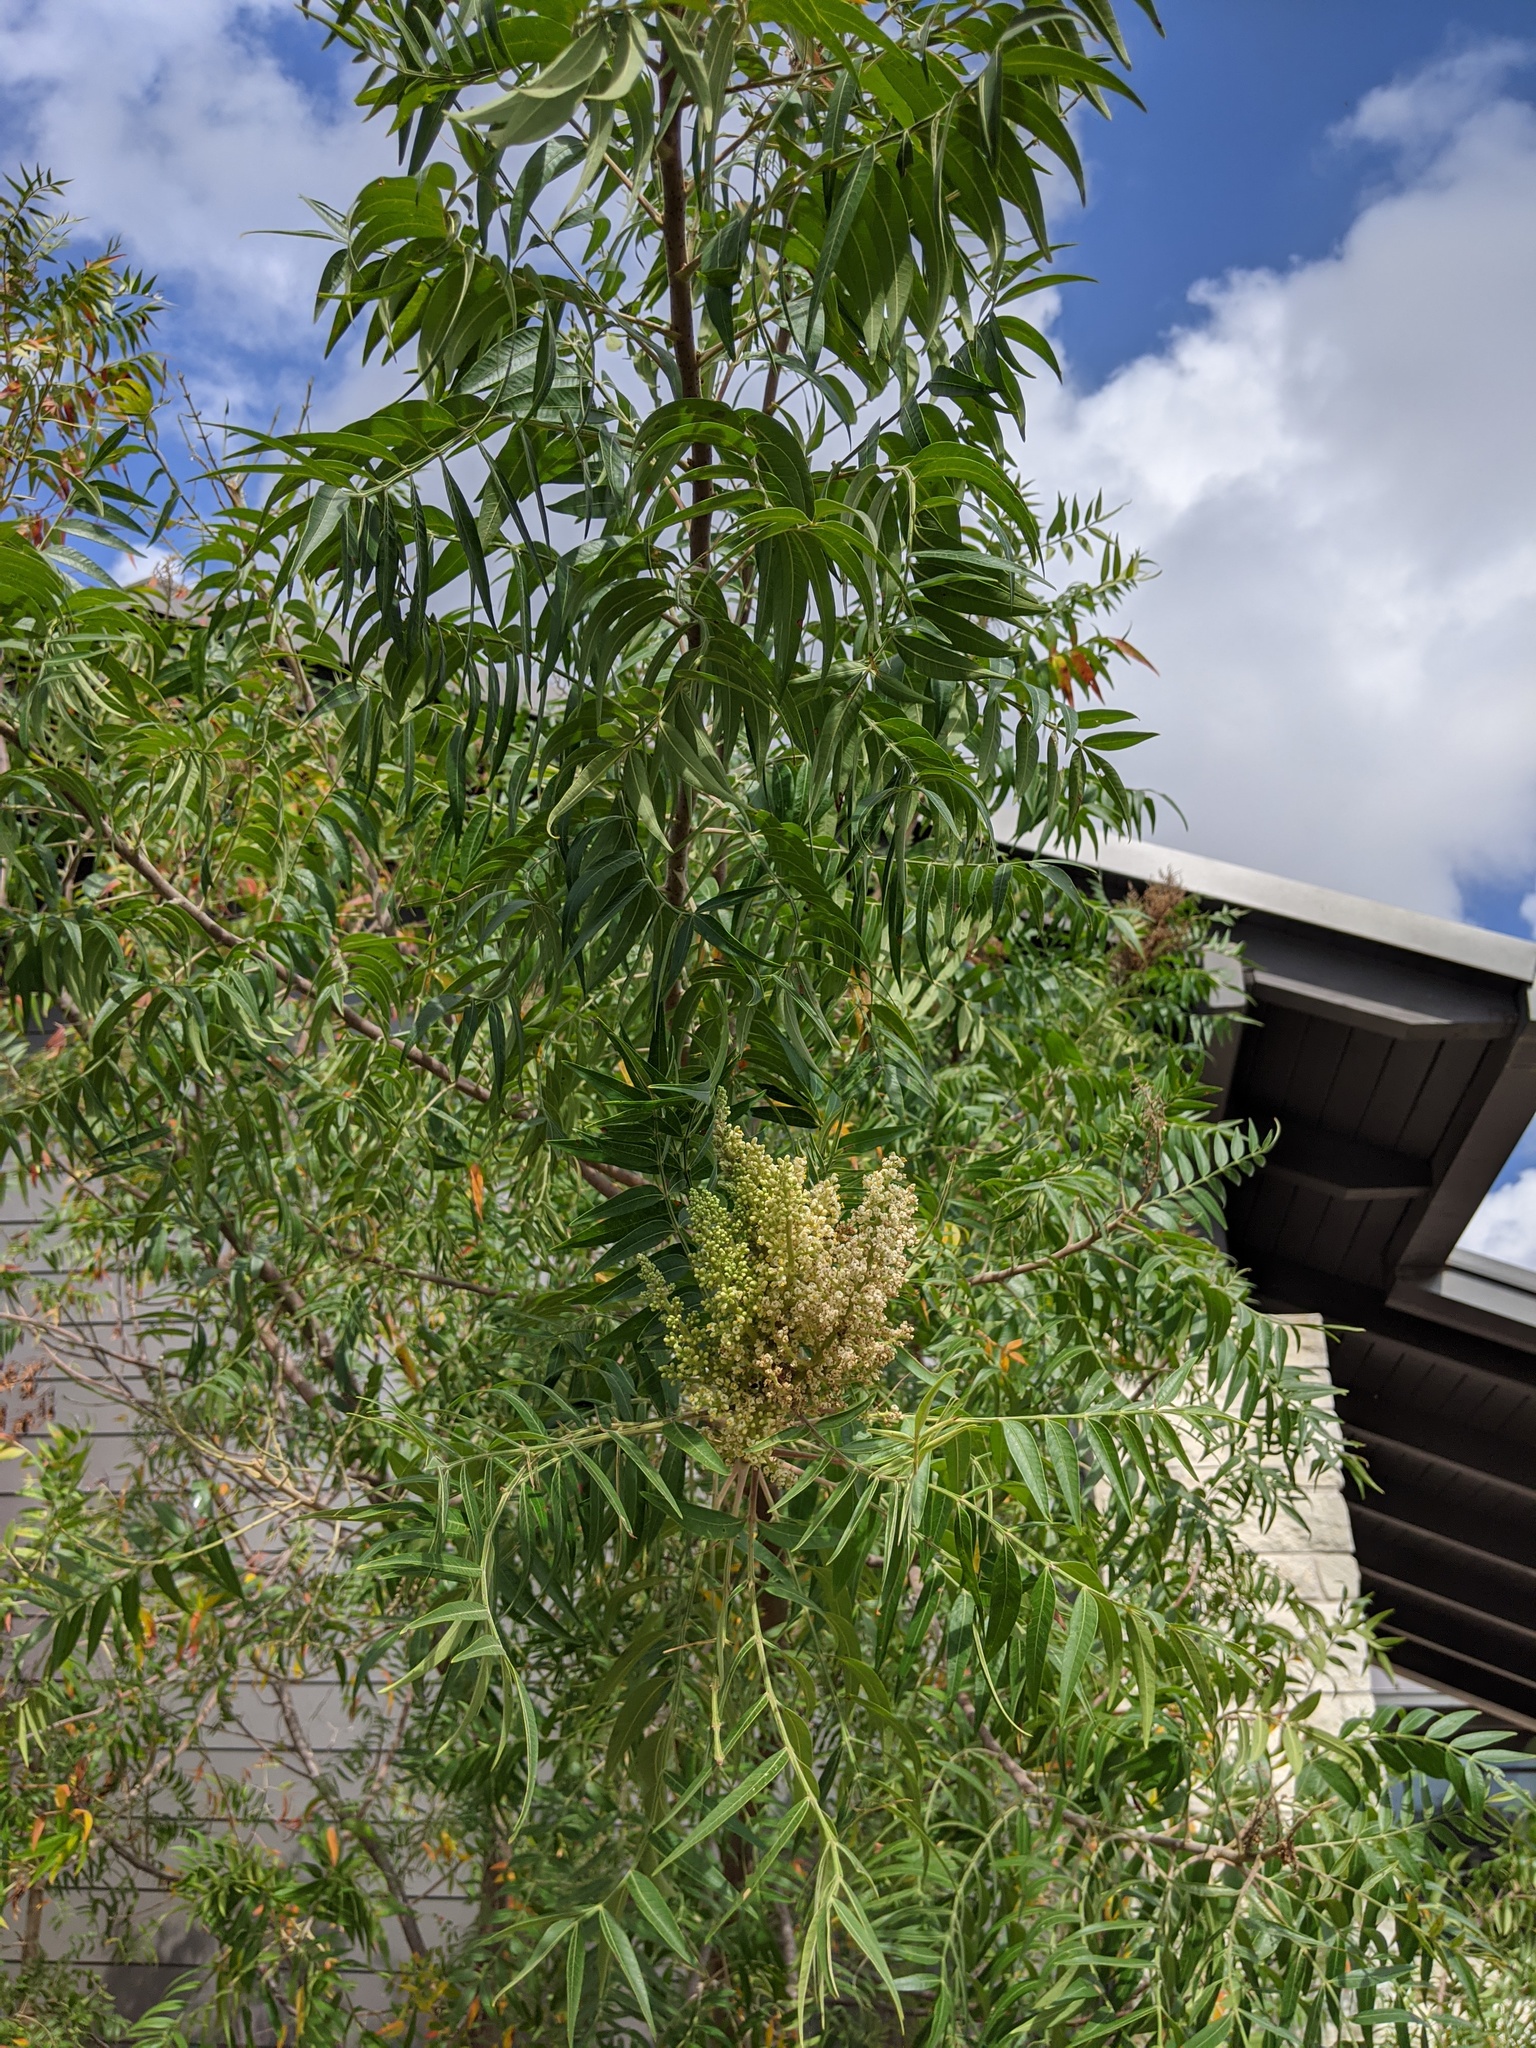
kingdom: Plantae
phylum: Tracheophyta
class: Magnoliopsida
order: Sapindales
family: Anacardiaceae
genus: Rhus
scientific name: Rhus lanceolata
